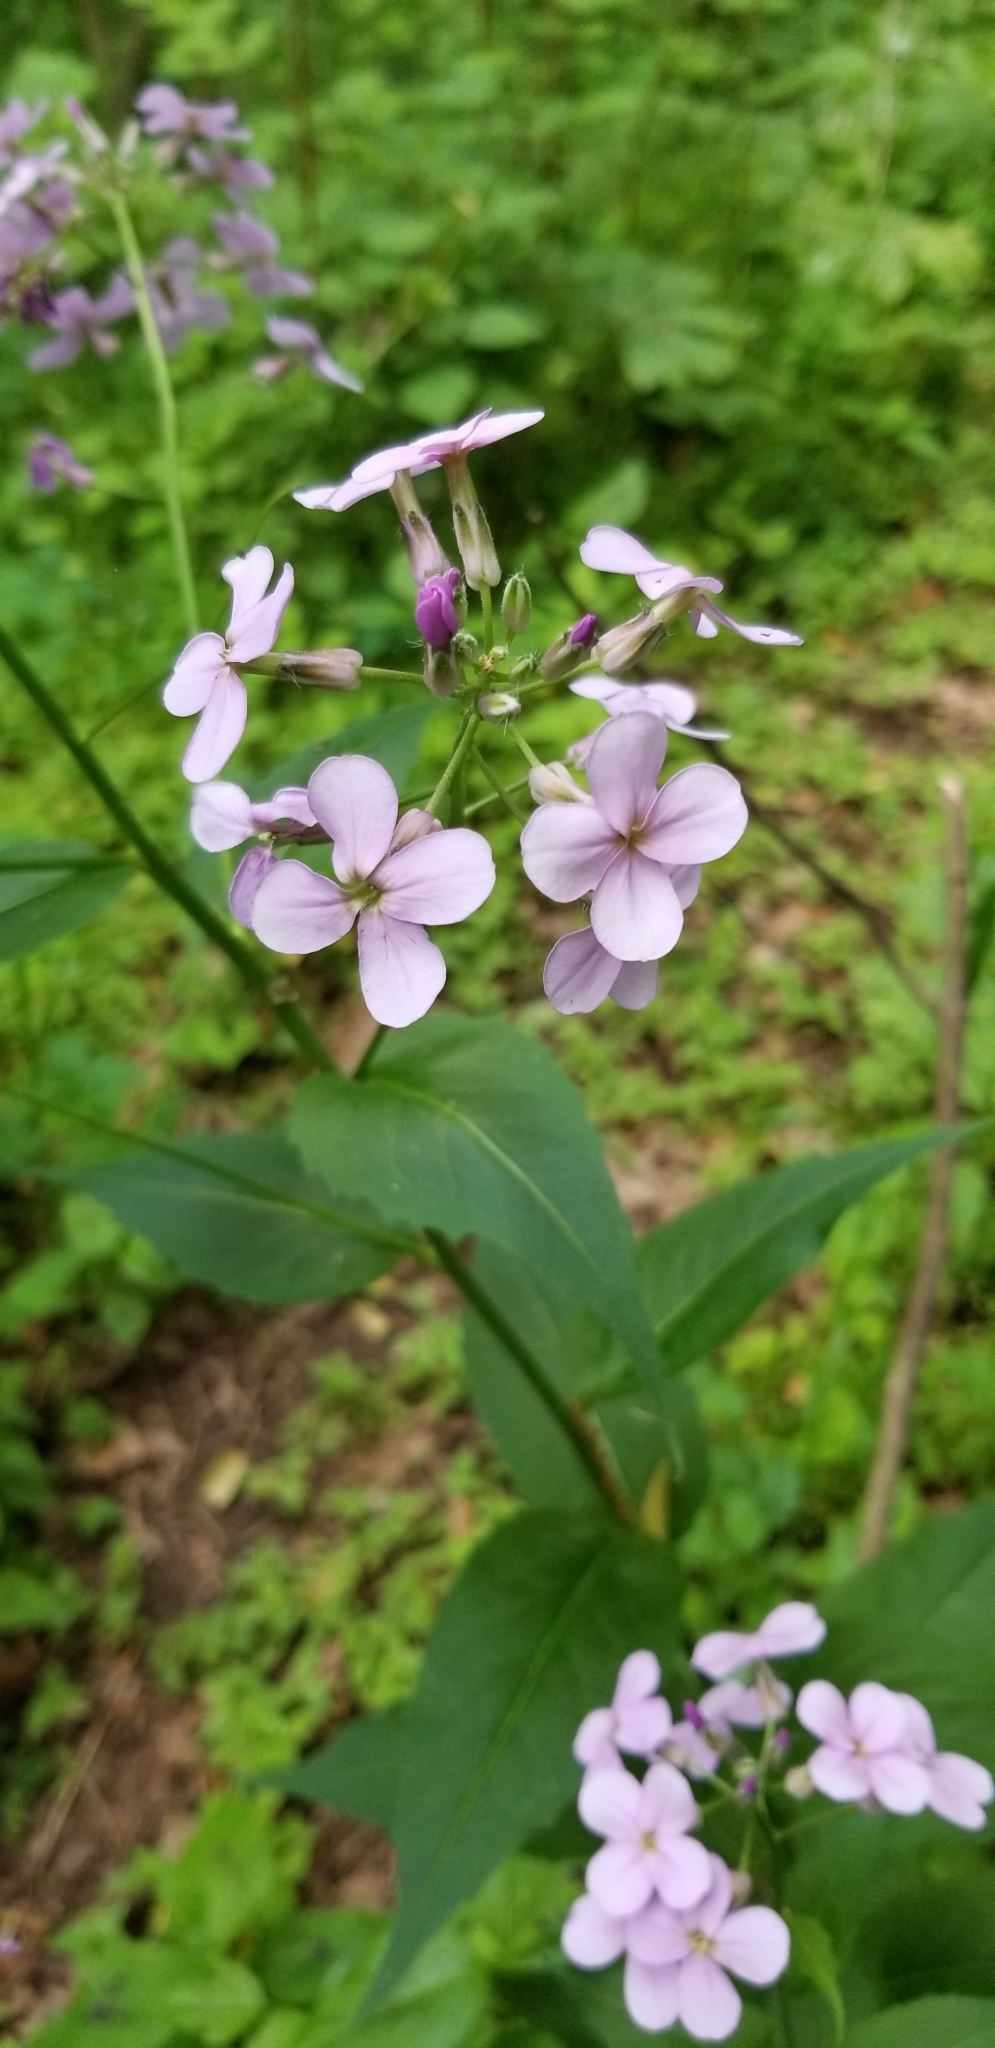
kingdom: Plantae
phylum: Tracheophyta
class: Magnoliopsida
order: Brassicales
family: Brassicaceae
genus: Hesperis
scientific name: Hesperis matronalis
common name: Dame's-violet
